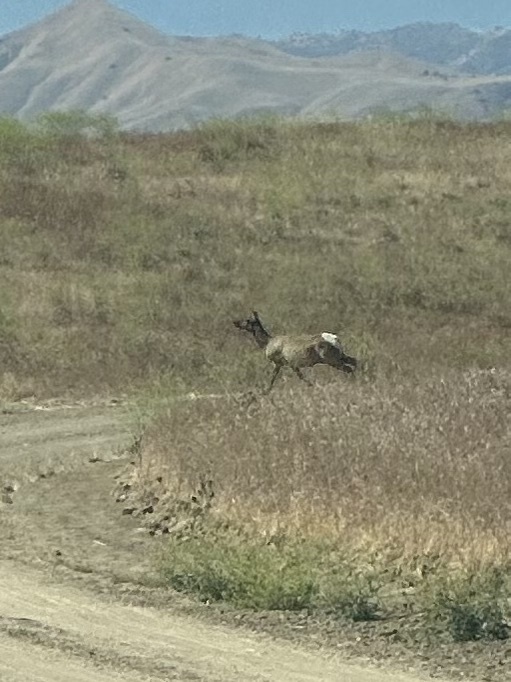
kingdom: Animalia
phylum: Chordata
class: Mammalia
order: Artiodactyla
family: Cervidae
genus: Cervus
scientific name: Cervus elaphus
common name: Red deer
